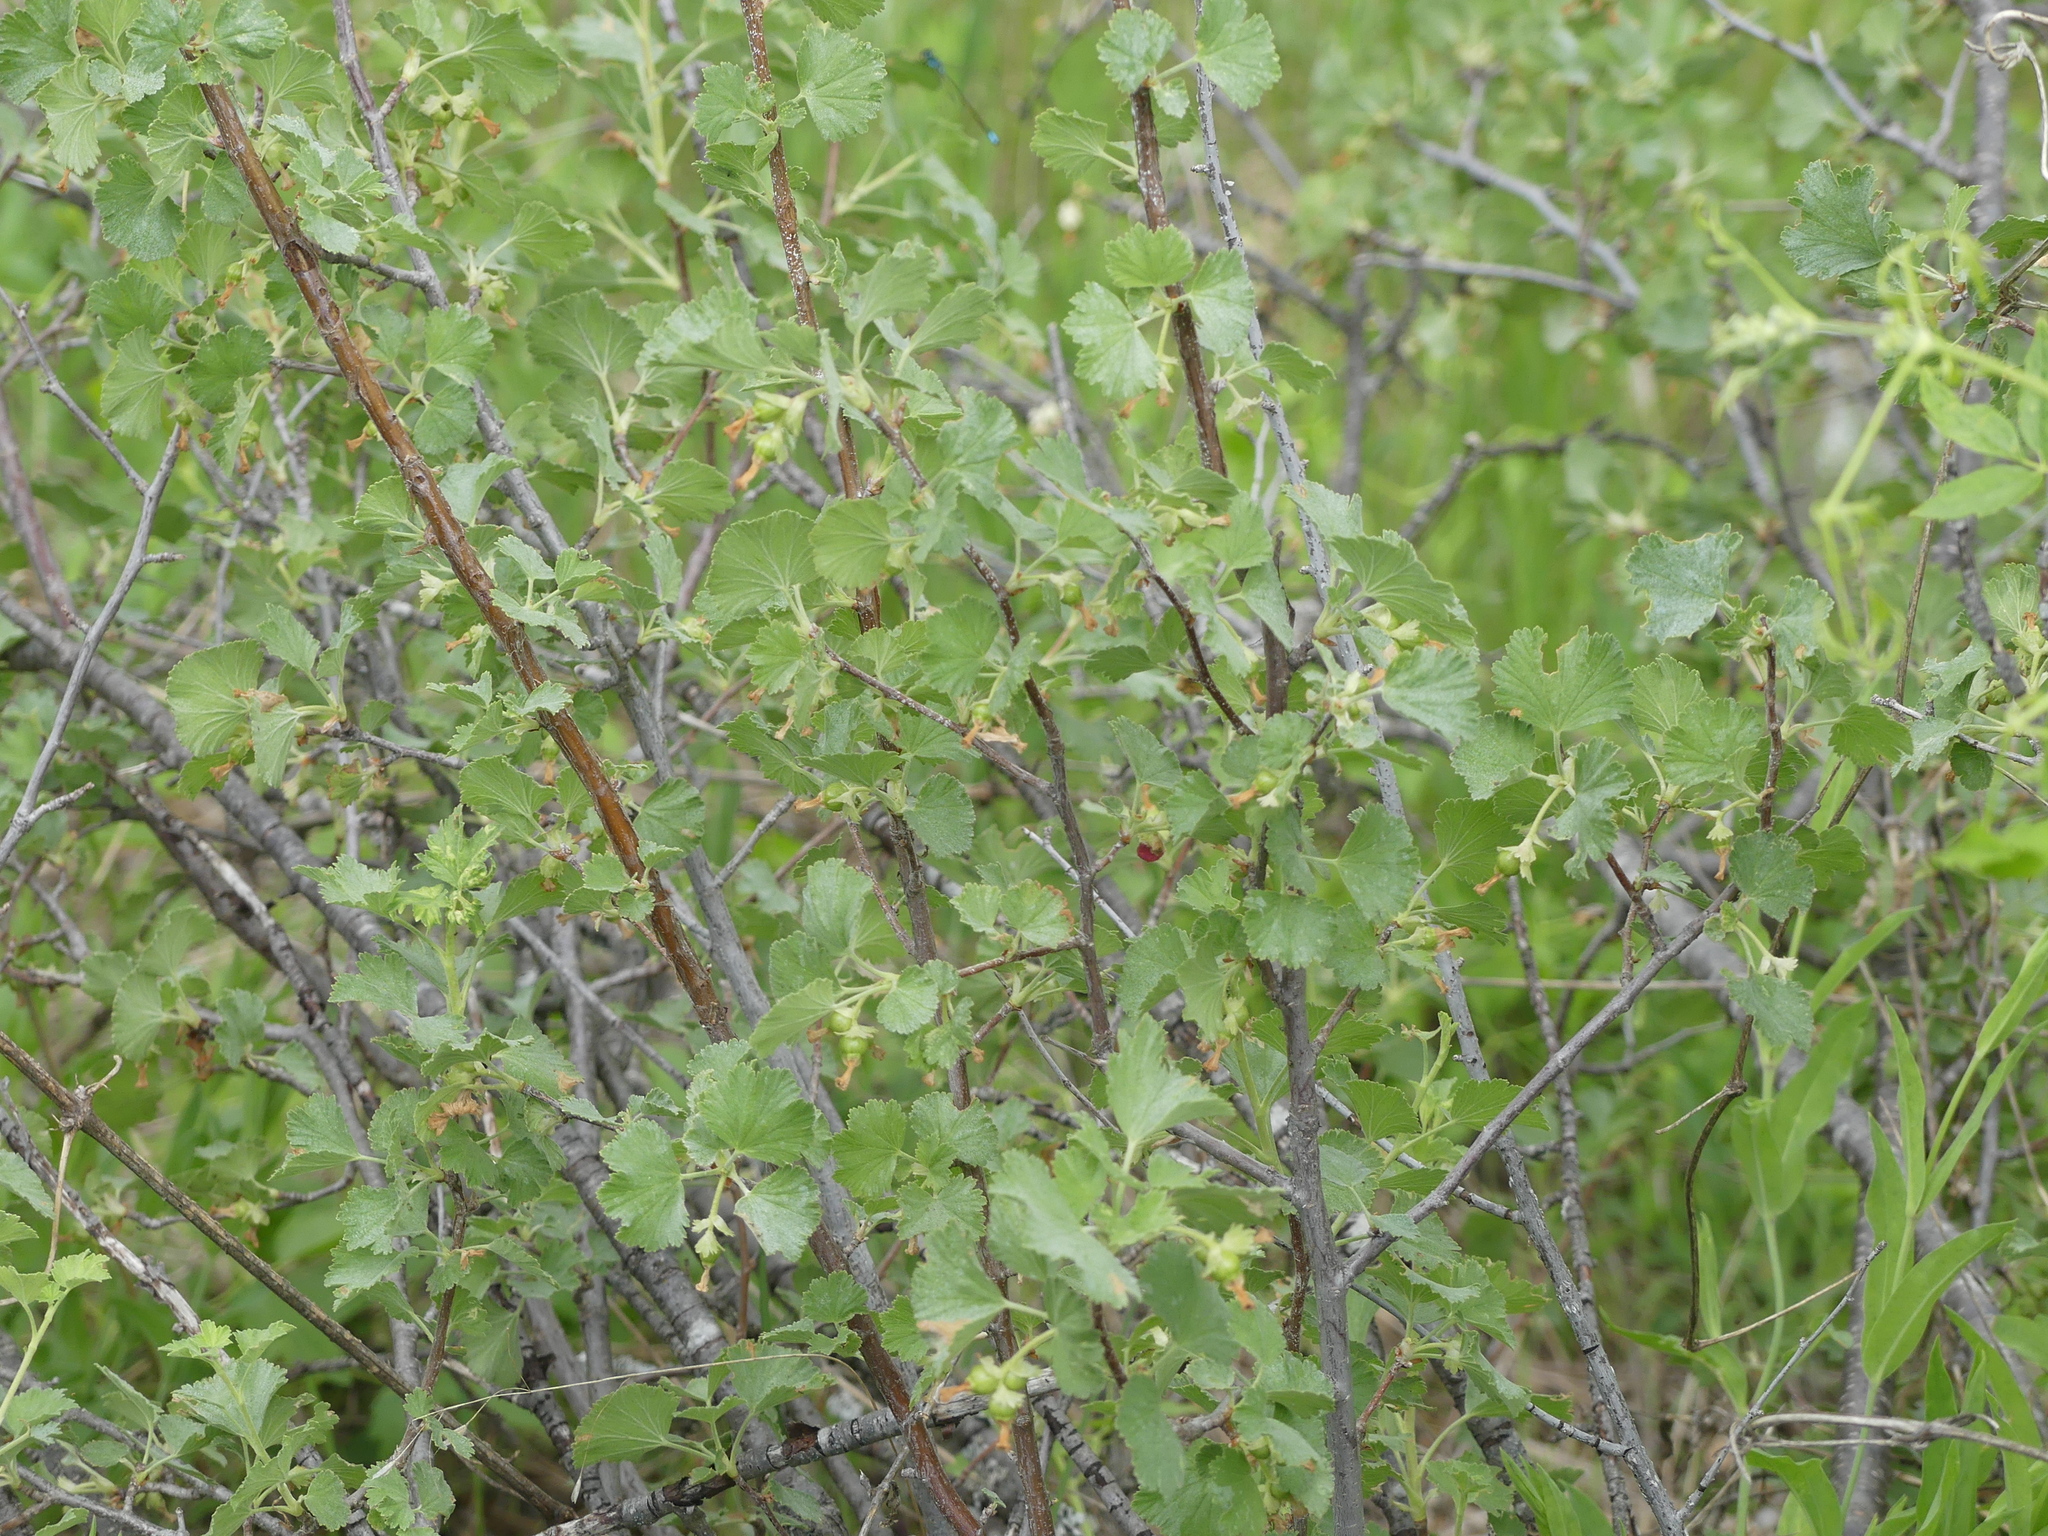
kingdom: Plantae
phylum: Tracheophyta
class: Magnoliopsida
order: Saxifragales
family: Grossulariaceae
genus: Ribes
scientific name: Ribes cereum
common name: Wax currant
